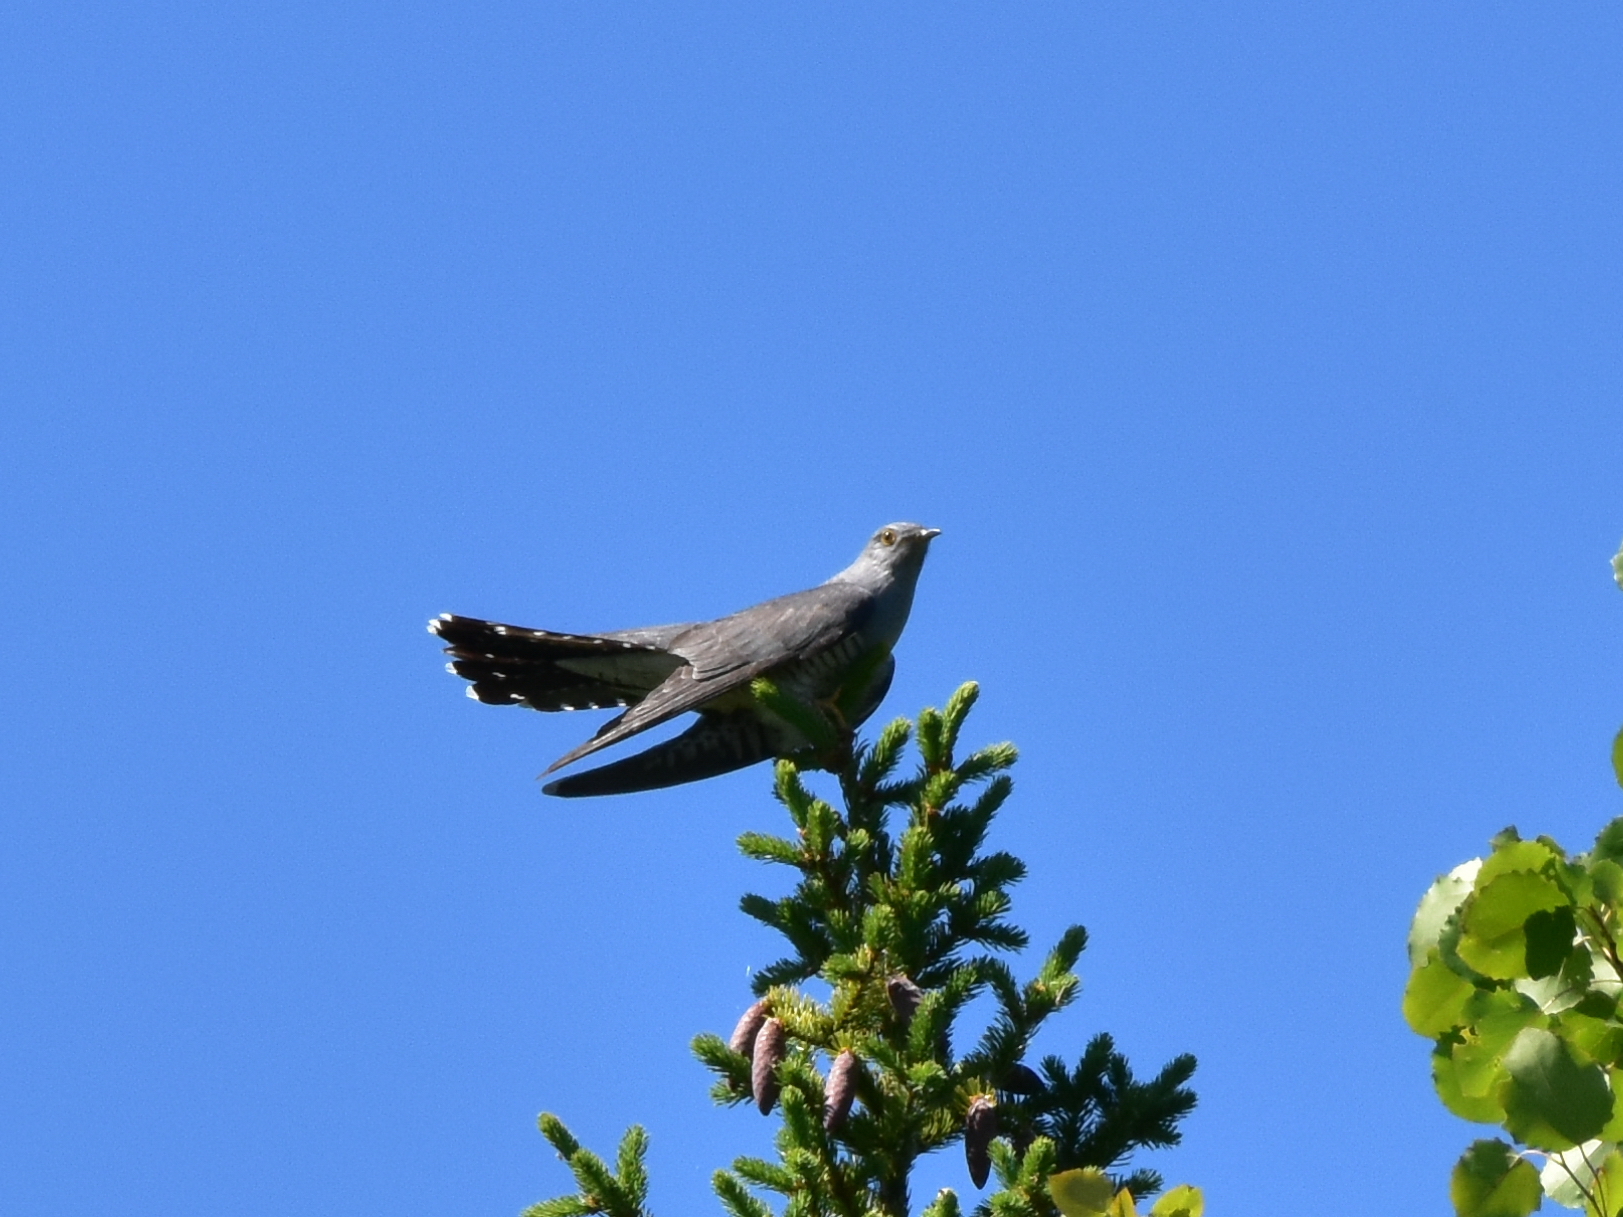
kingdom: Animalia
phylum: Chordata
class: Aves
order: Cuculiformes
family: Cuculidae
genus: Cuculus
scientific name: Cuculus canorus
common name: Common cuckoo
